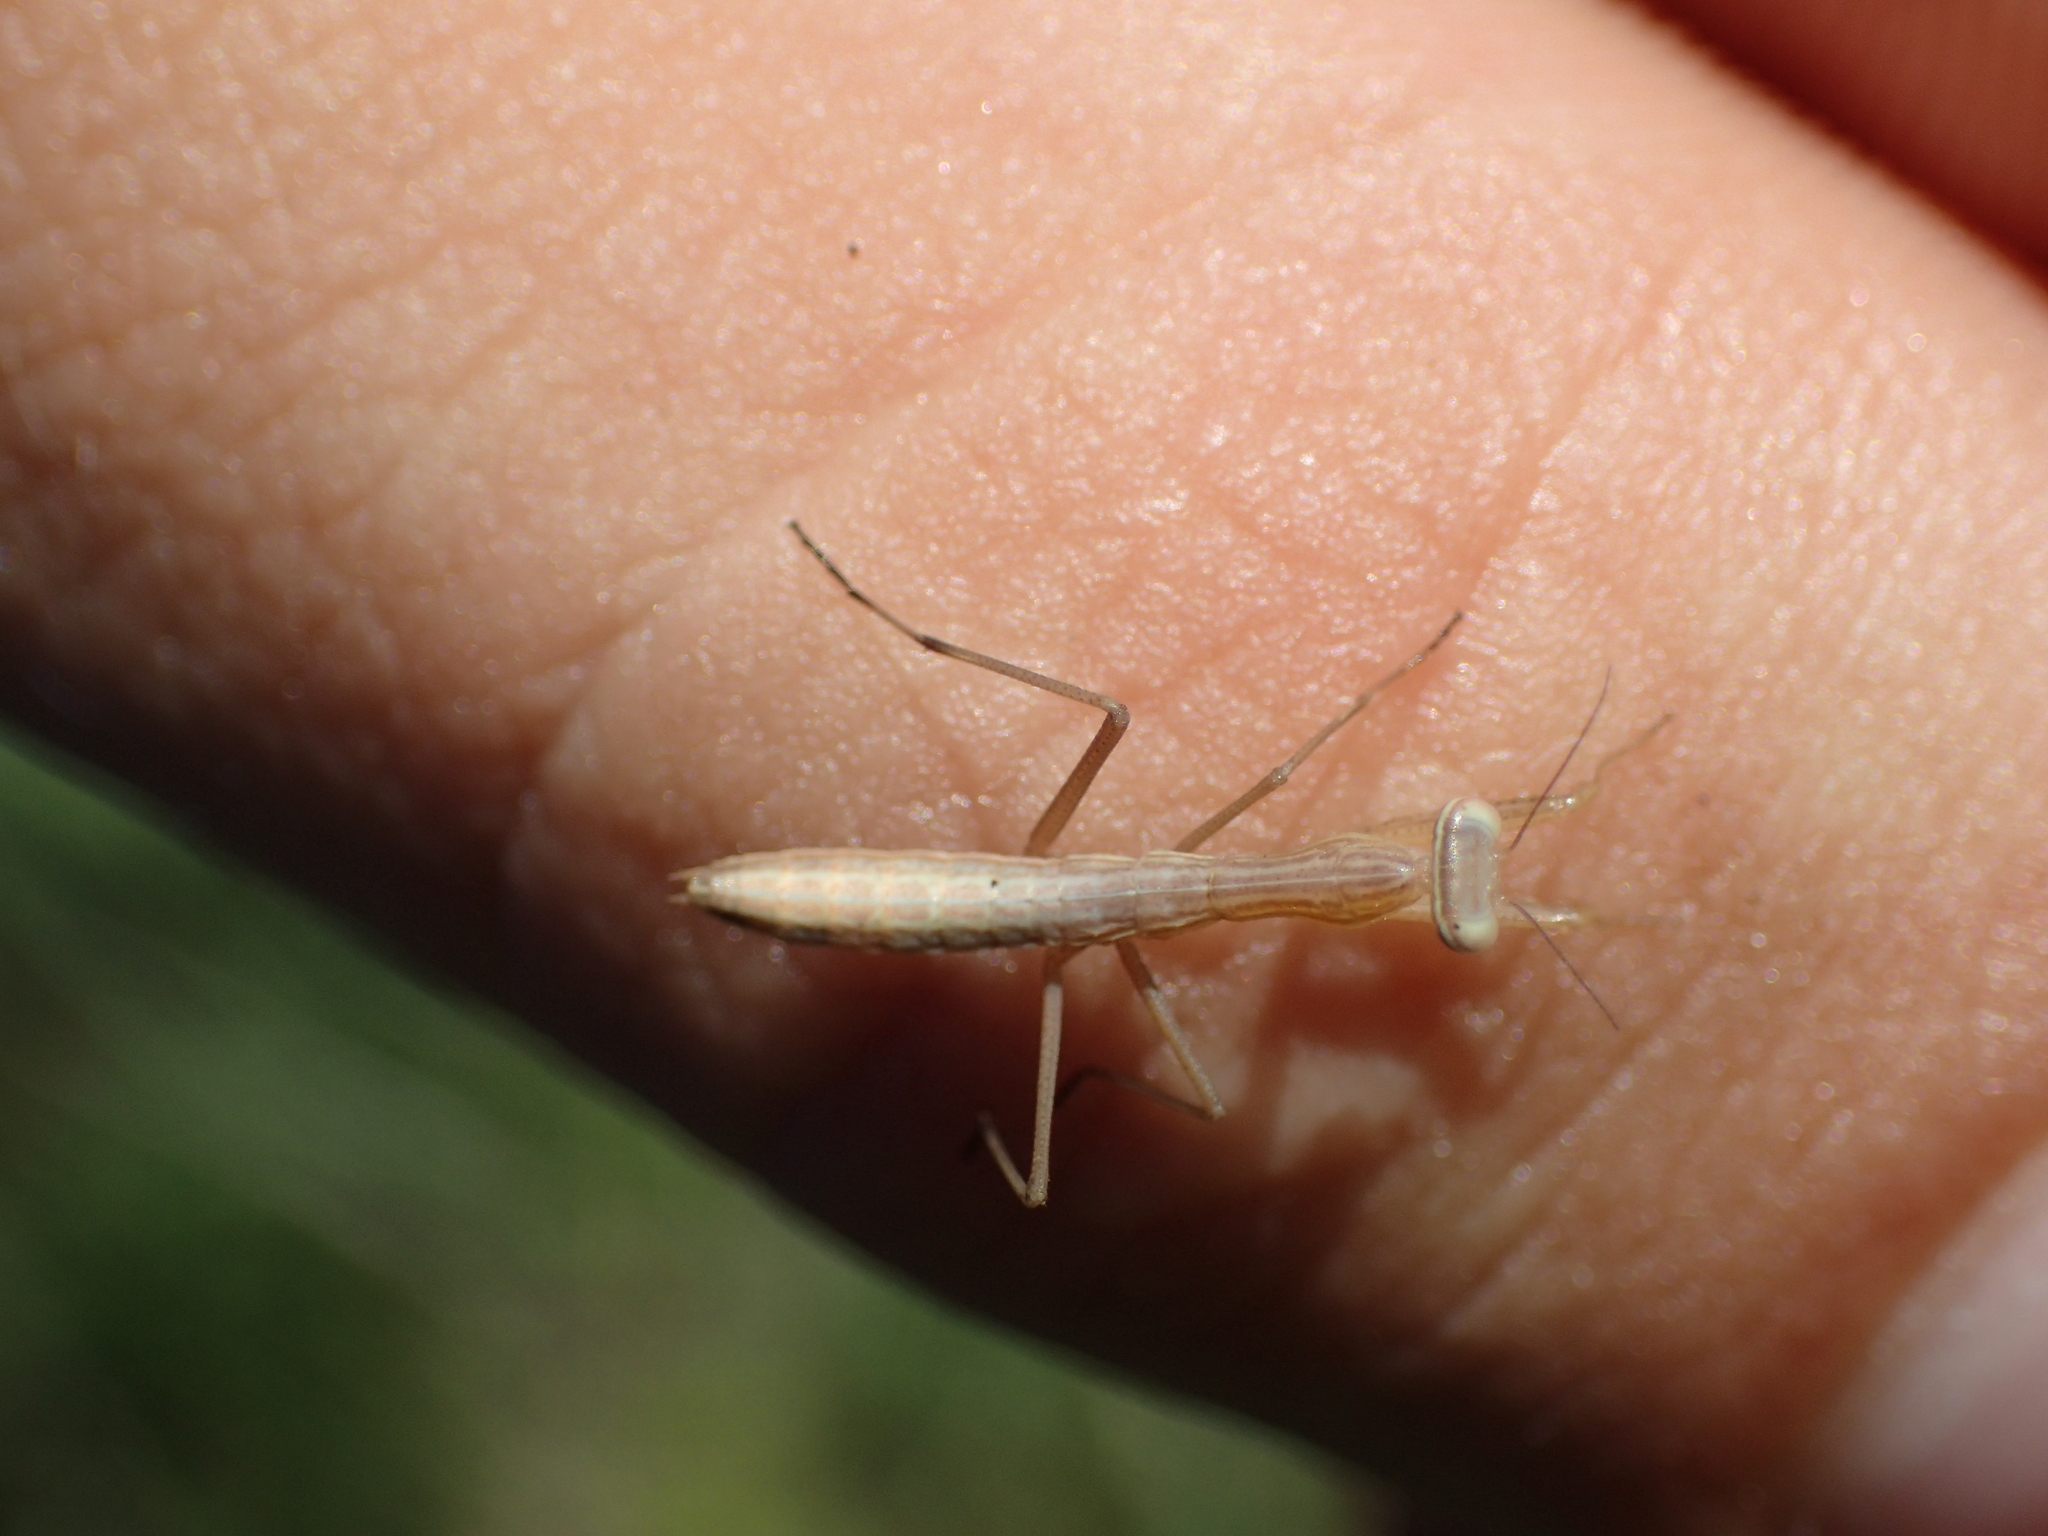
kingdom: Animalia
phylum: Arthropoda
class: Insecta
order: Mantodea
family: Mantidae
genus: Mantis
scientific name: Mantis religiosa
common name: Praying mantis
